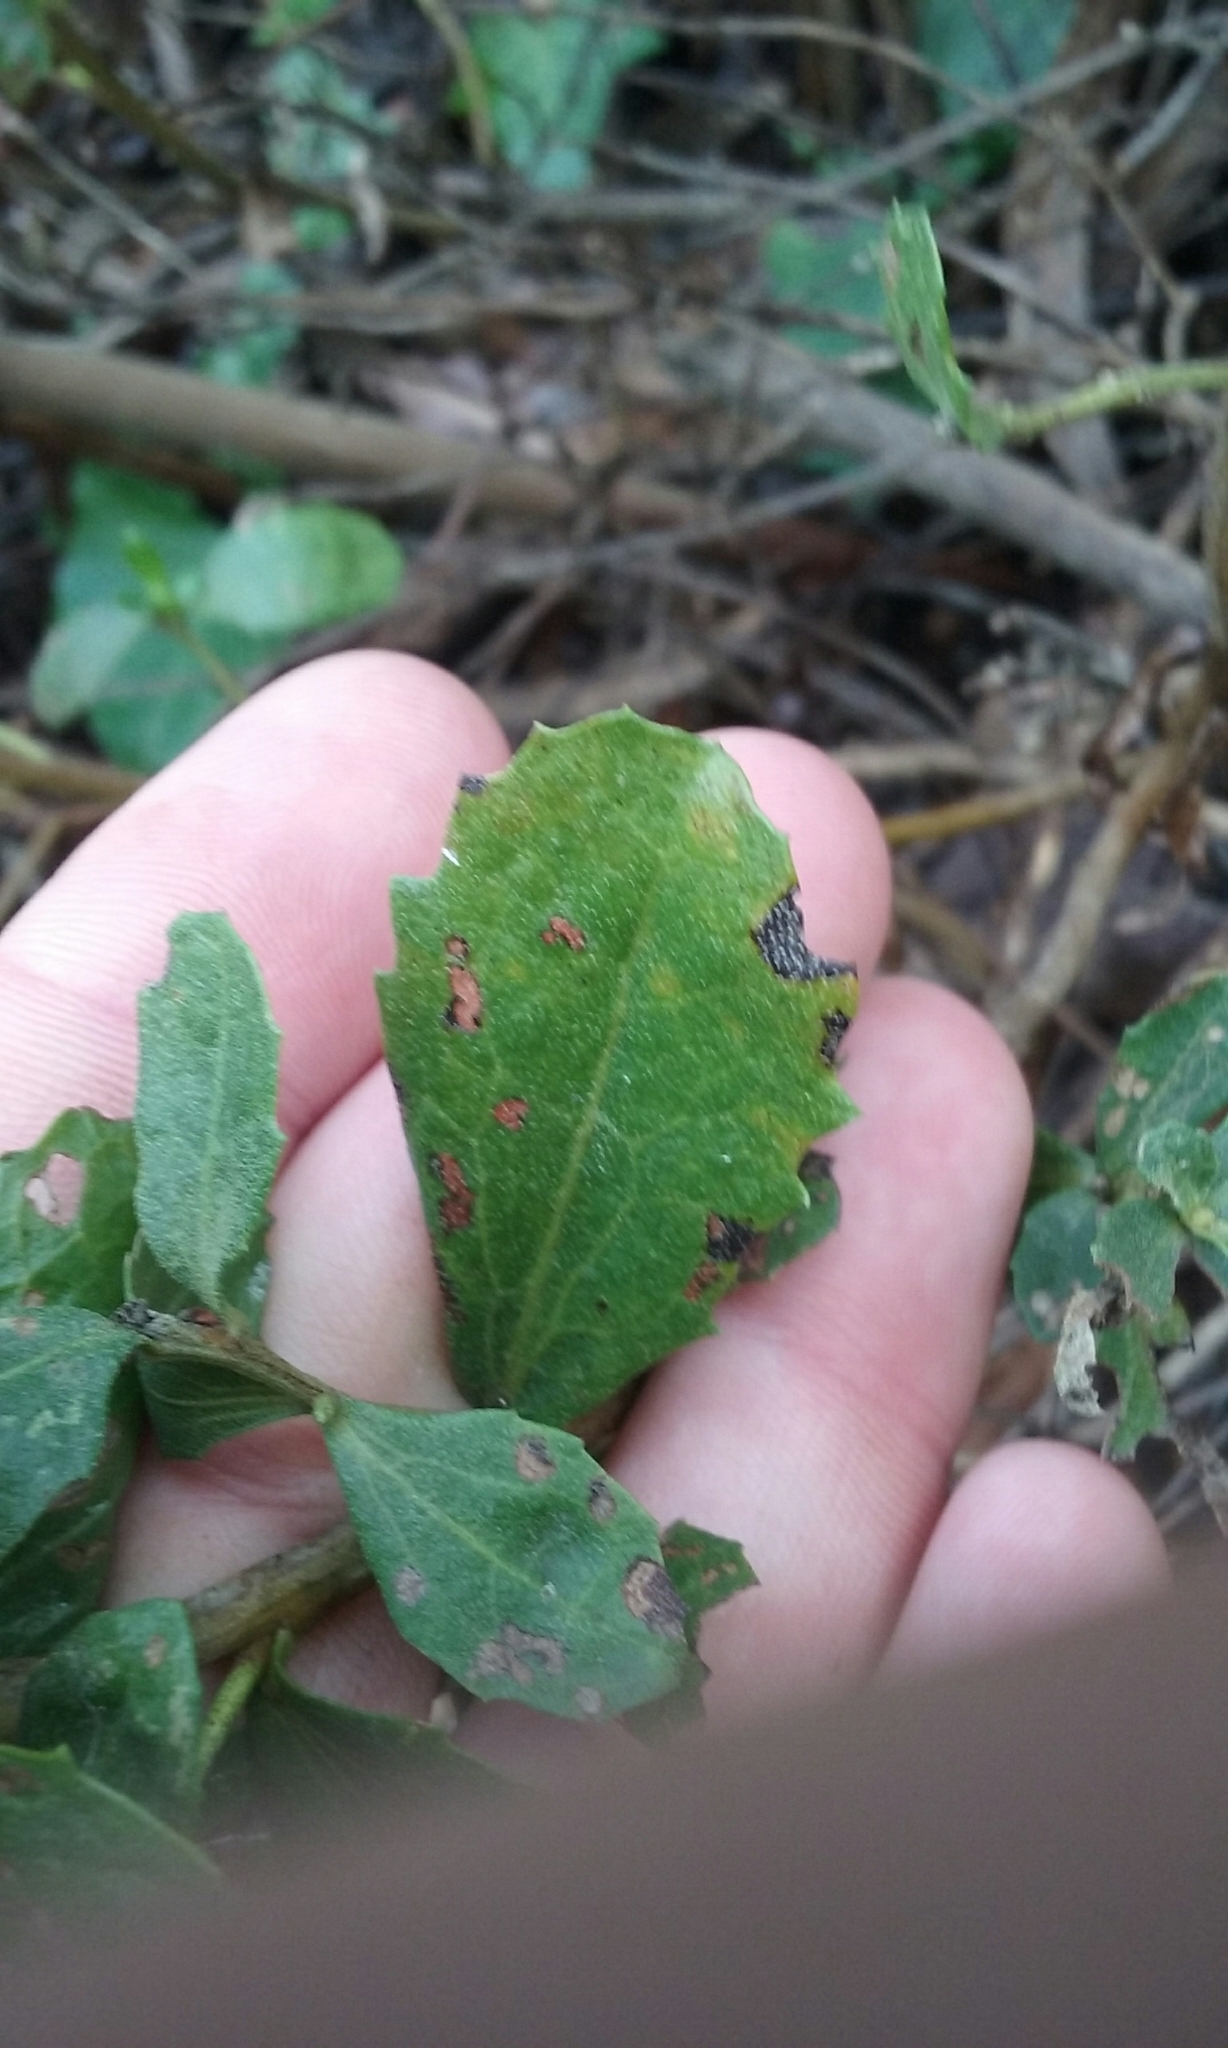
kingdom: Plantae
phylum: Tracheophyta
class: Magnoliopsida
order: Asterales
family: Asteraceae
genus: Baccharis
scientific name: Baccharis pilularis
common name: Coyotebrush
